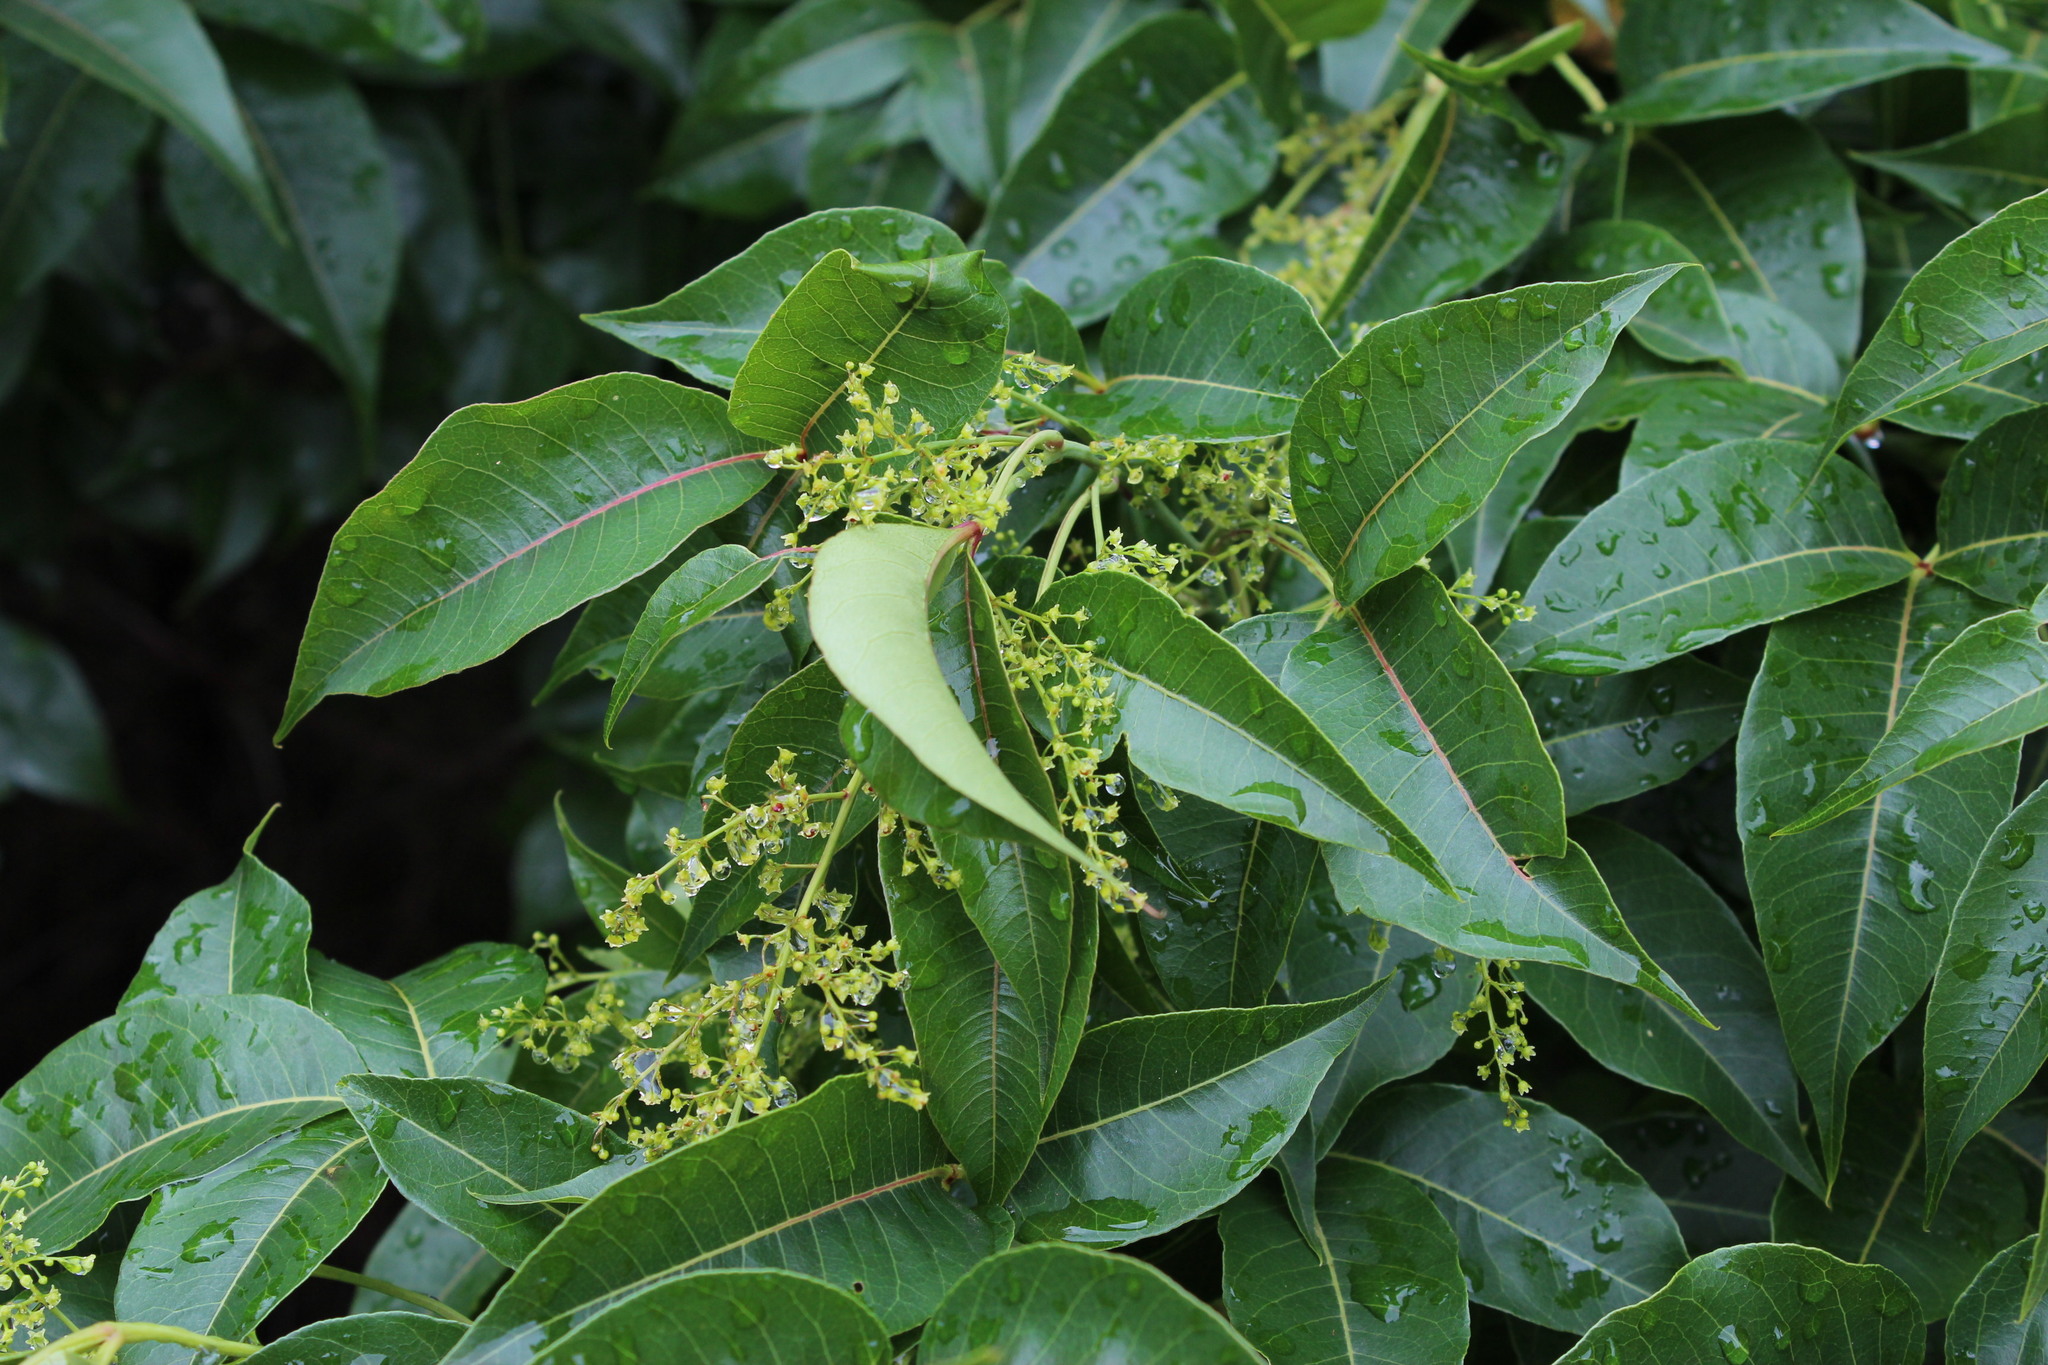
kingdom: Plantae
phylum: Tracheophyta
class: Magnoliopsida
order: Sapindales
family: Anacardiaceae
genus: Searsia
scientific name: Searsia chirindensis
